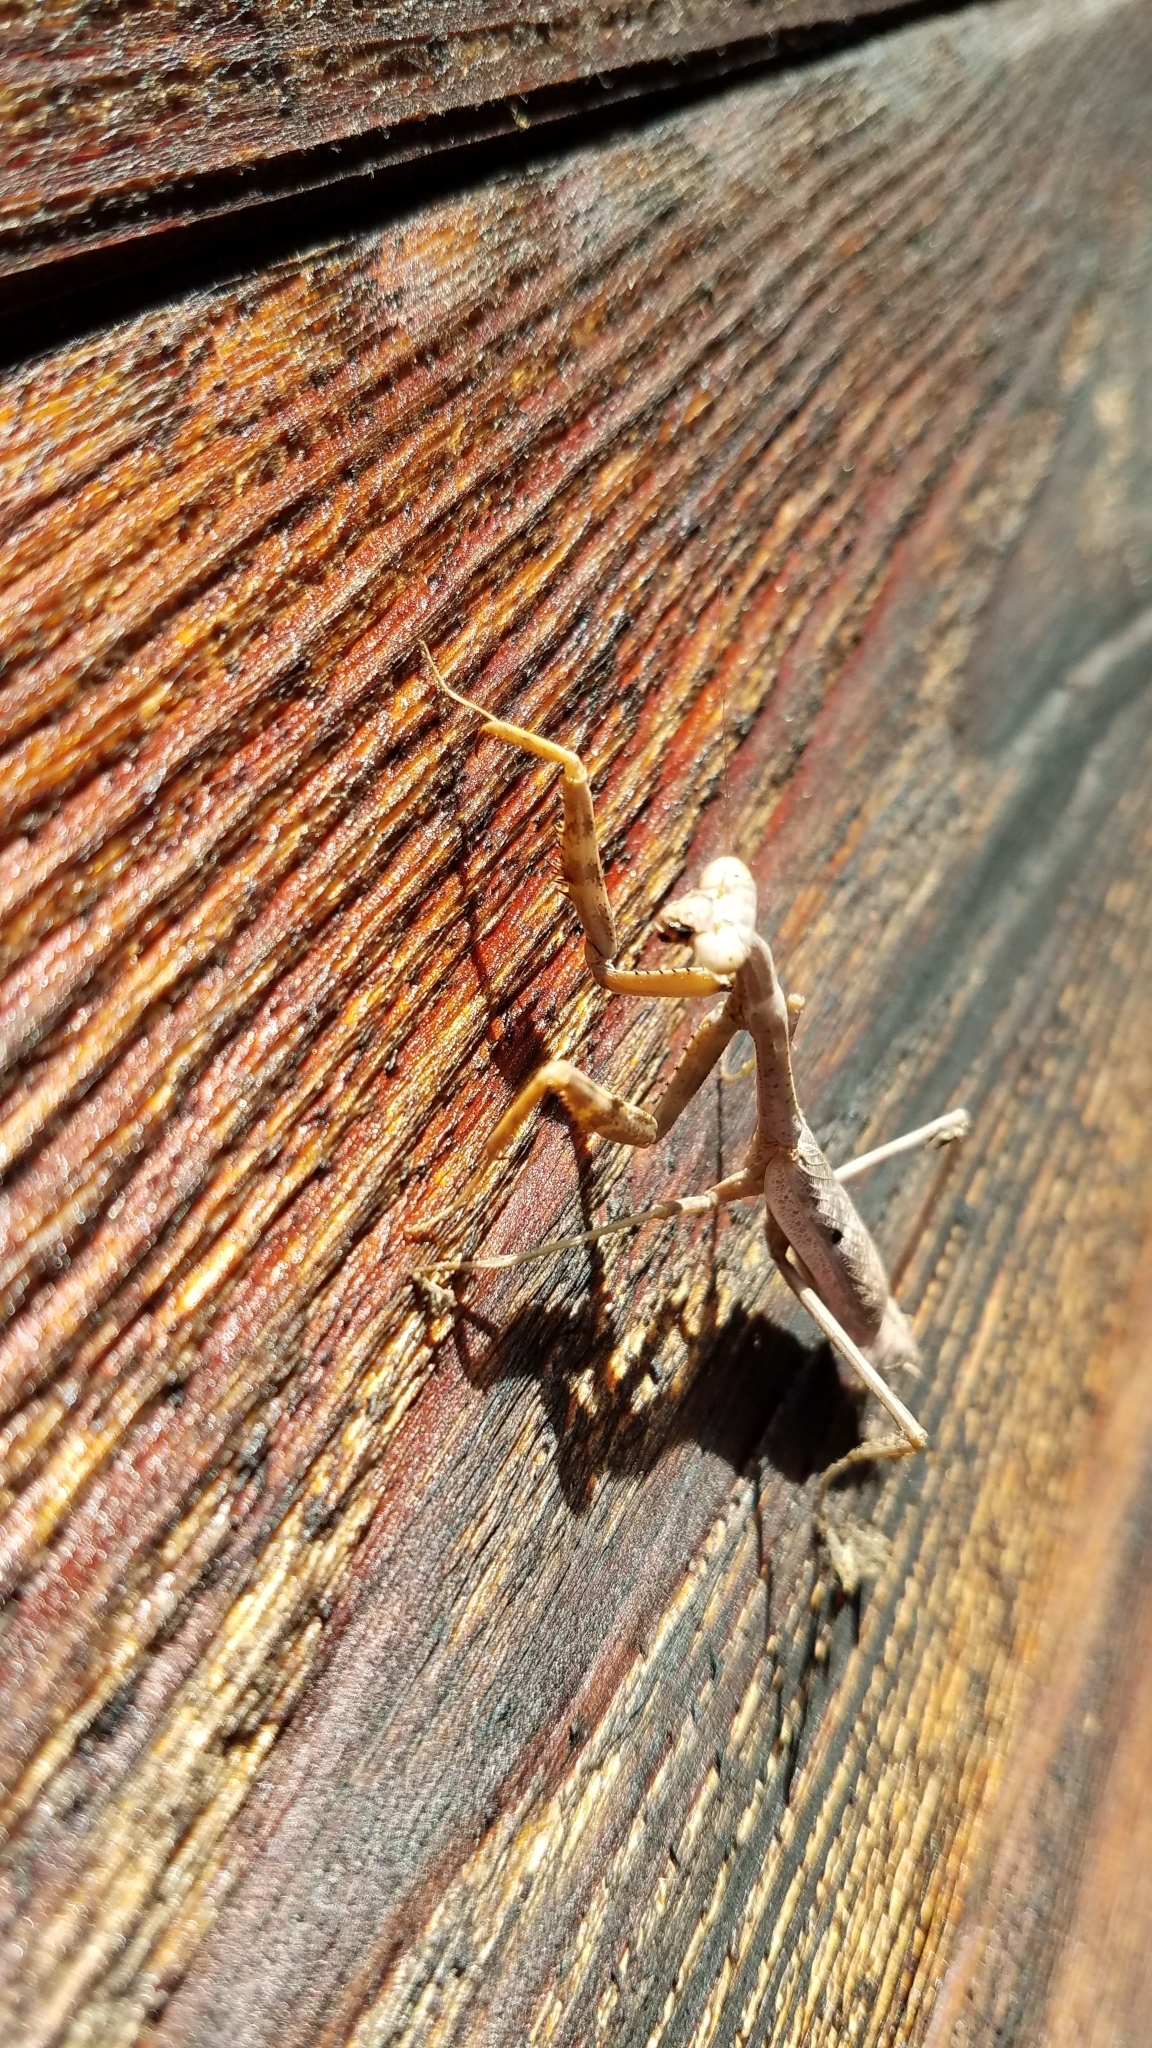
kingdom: Animalia
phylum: Arthropoda
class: Insecta
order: Mantodea
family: Mantidae
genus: Stagmomantis
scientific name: Stagmomantis carolina
